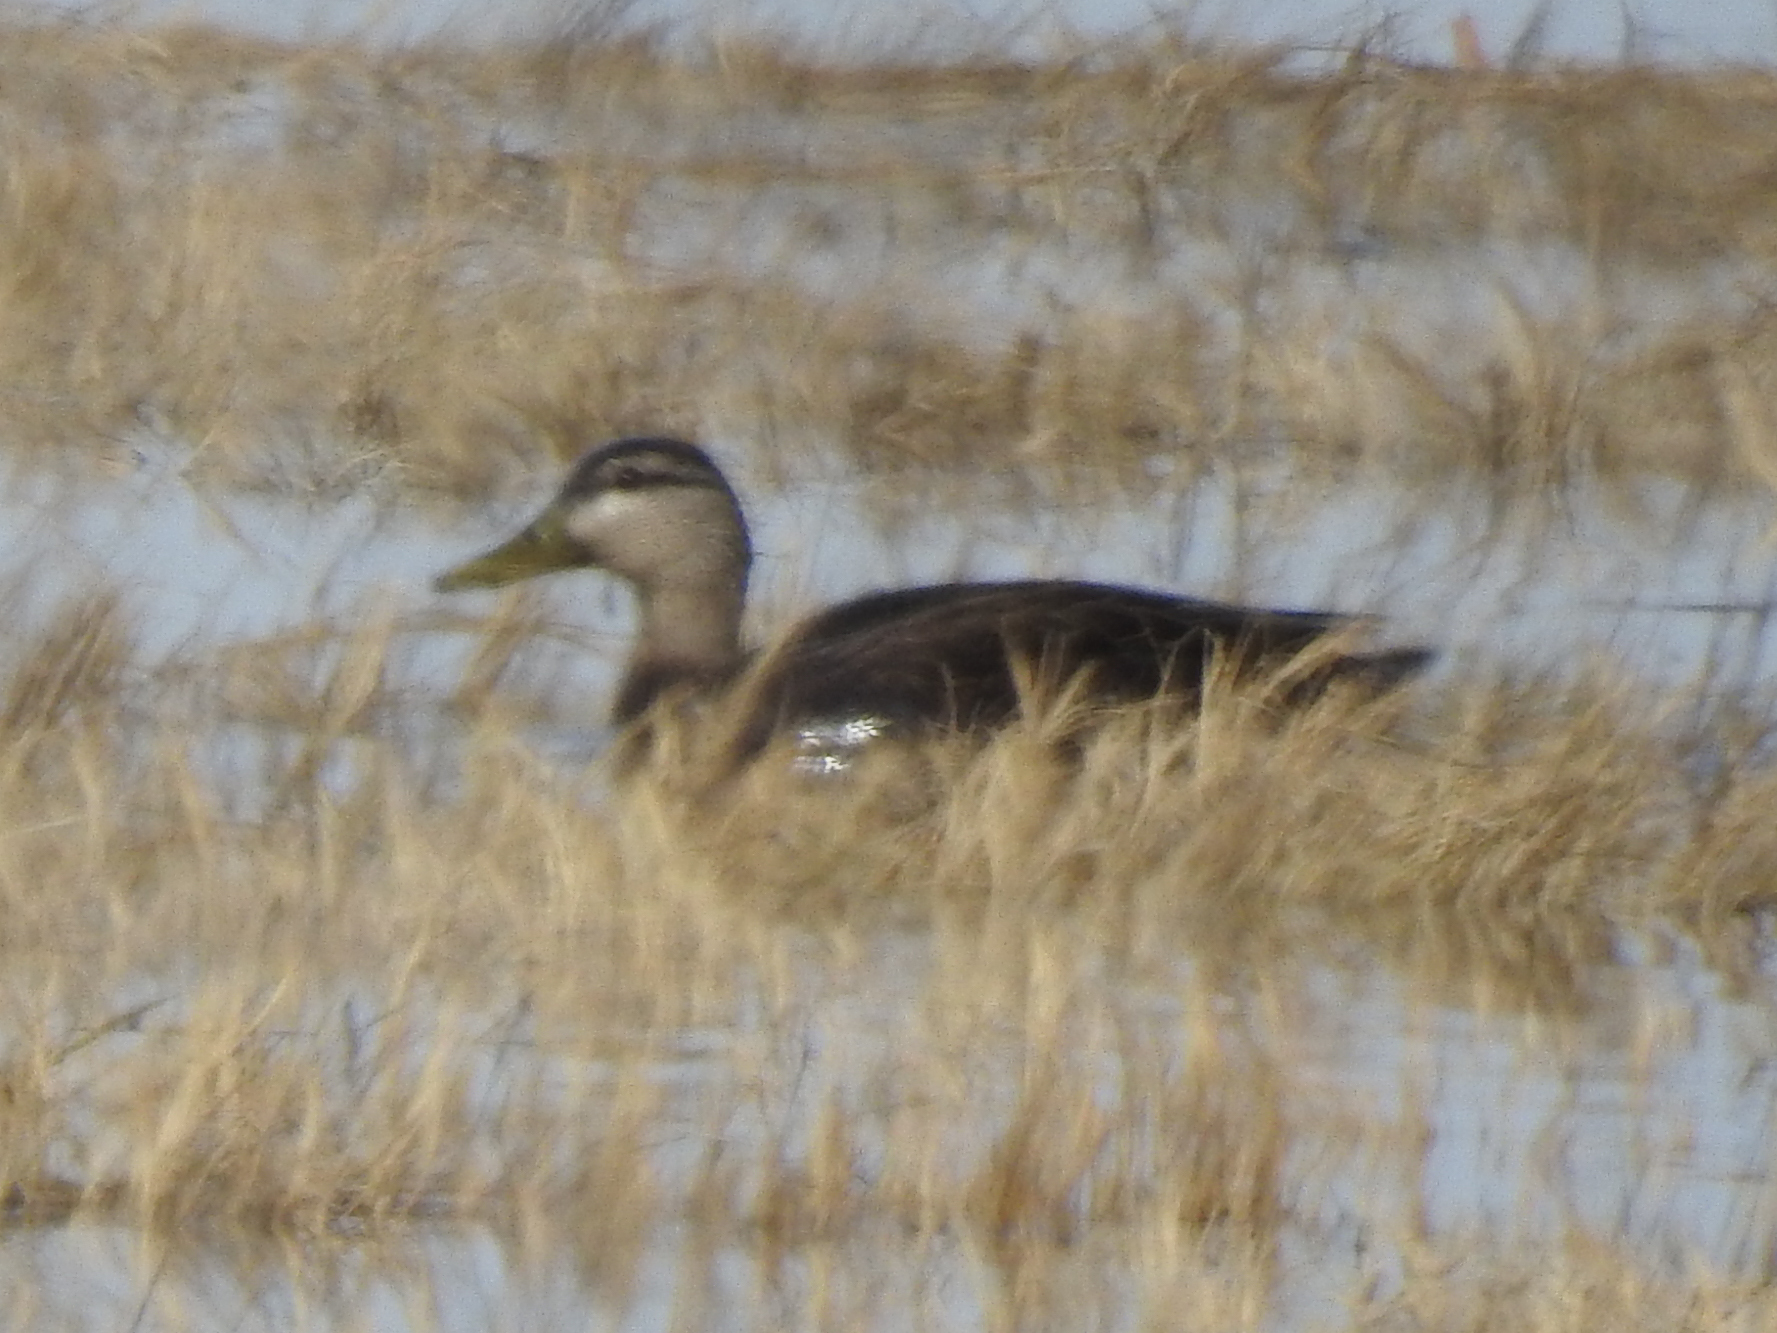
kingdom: Animalia
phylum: Chordata
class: Aves
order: Anseriformes
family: Anatidae
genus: Anas
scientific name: Anas rubripes
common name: American black duck
